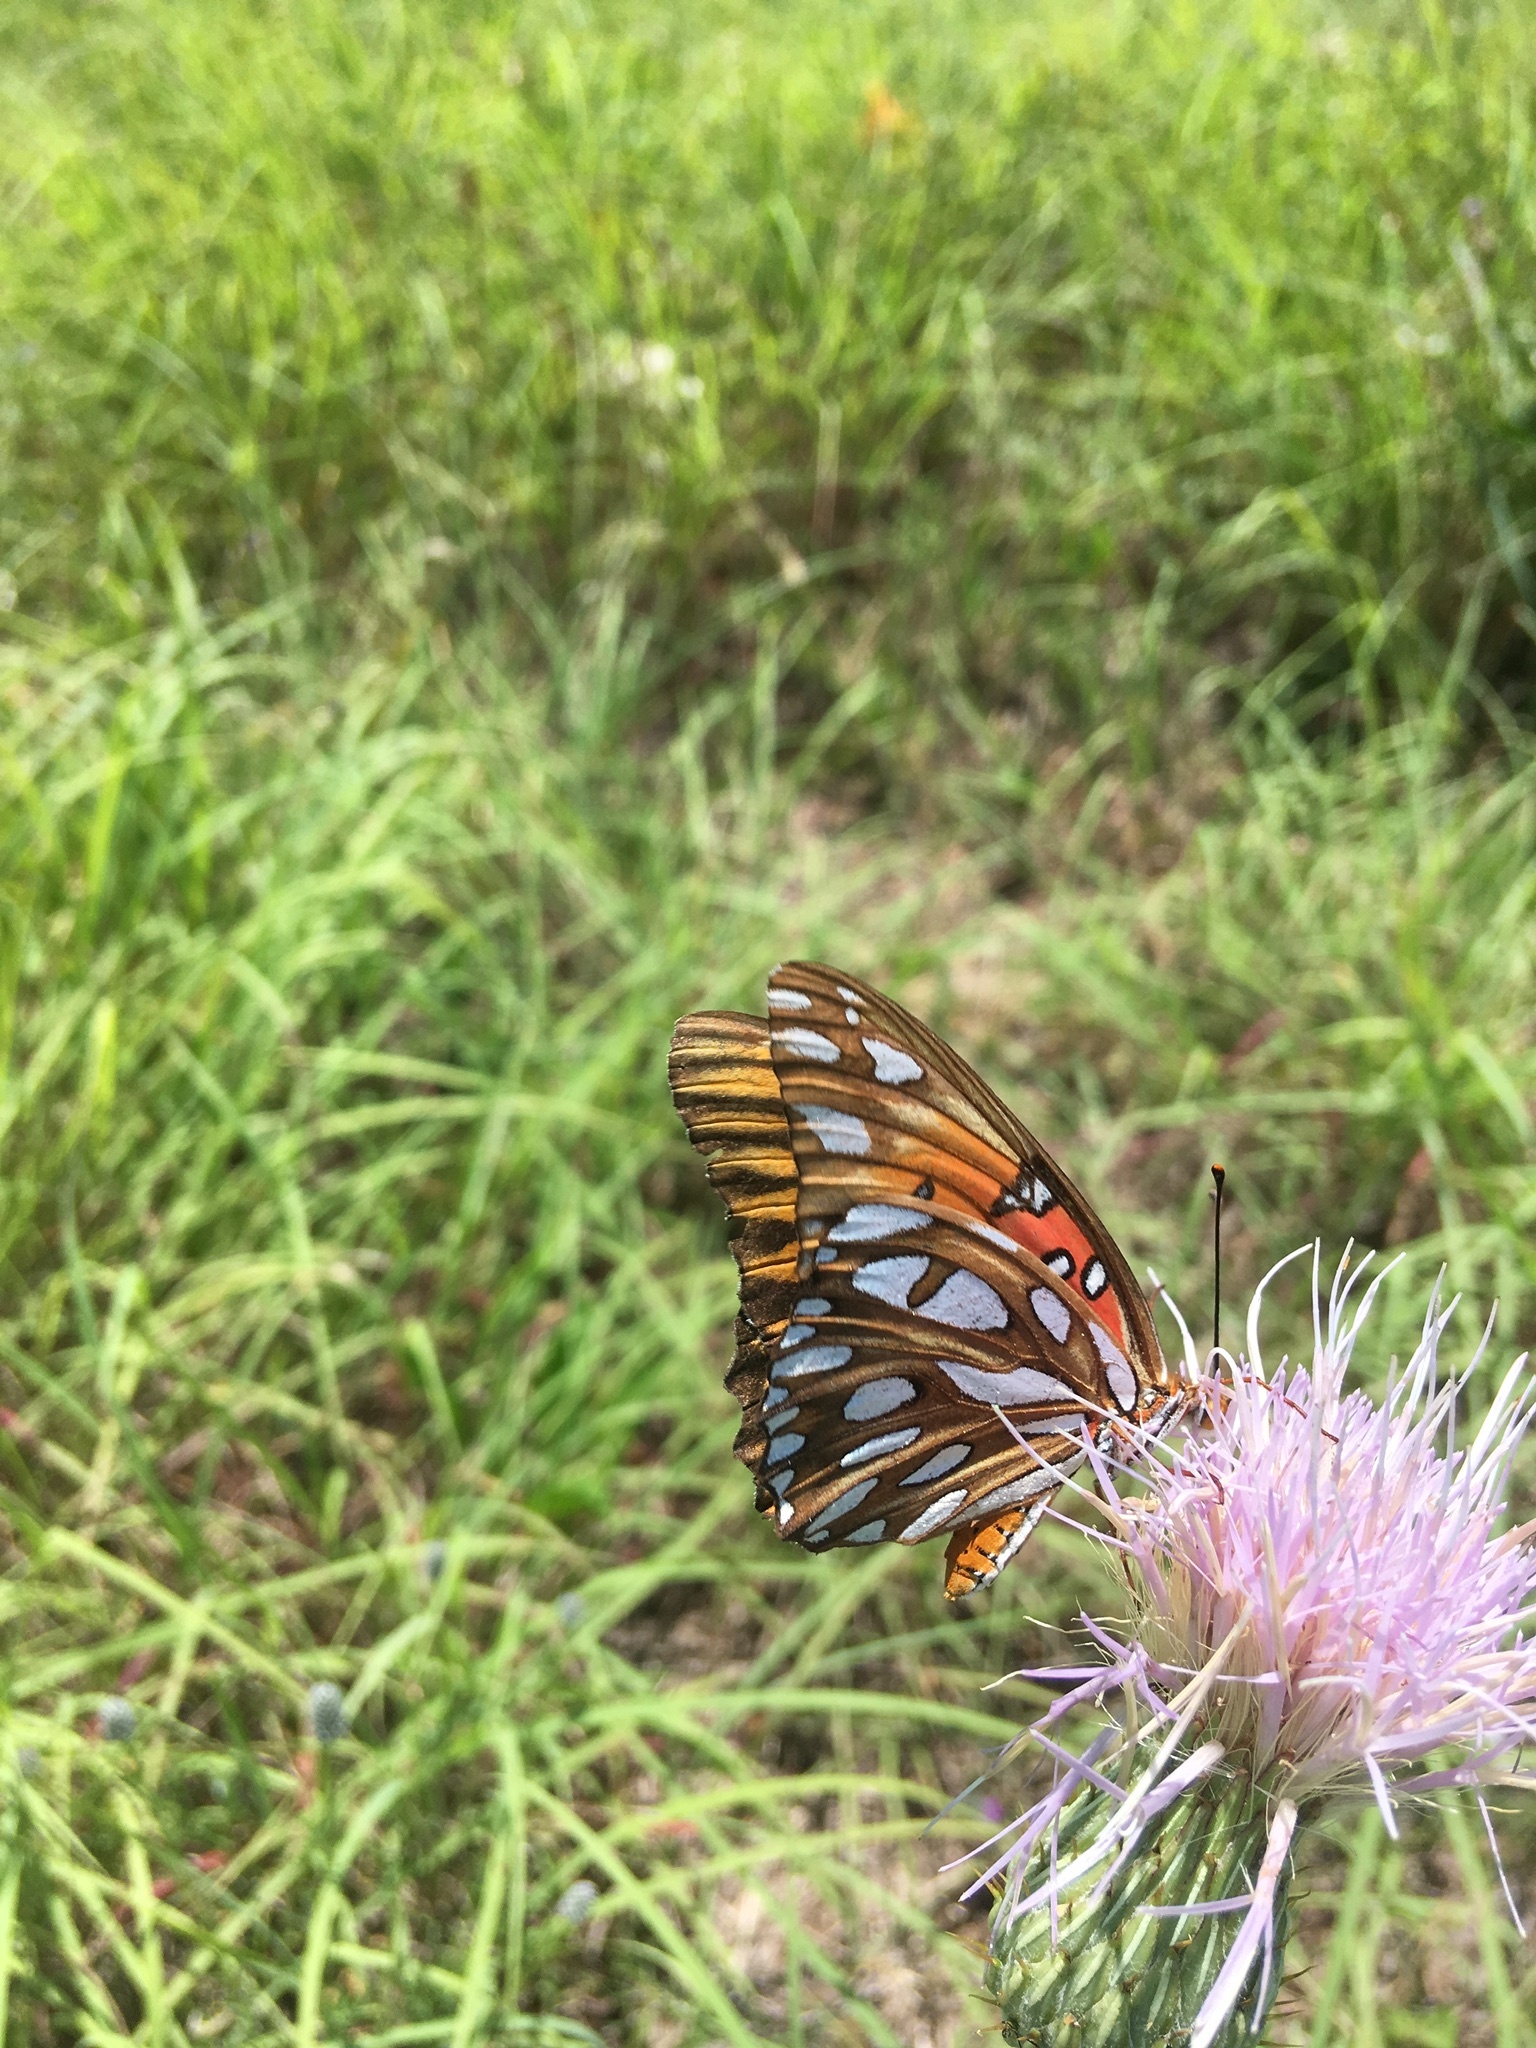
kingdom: Animalia
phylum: Arthropoda
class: Insecta
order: Lepidoptera
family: Nymphalidae
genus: Dione
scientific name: Dione vanillae
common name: Gulf fritillary
